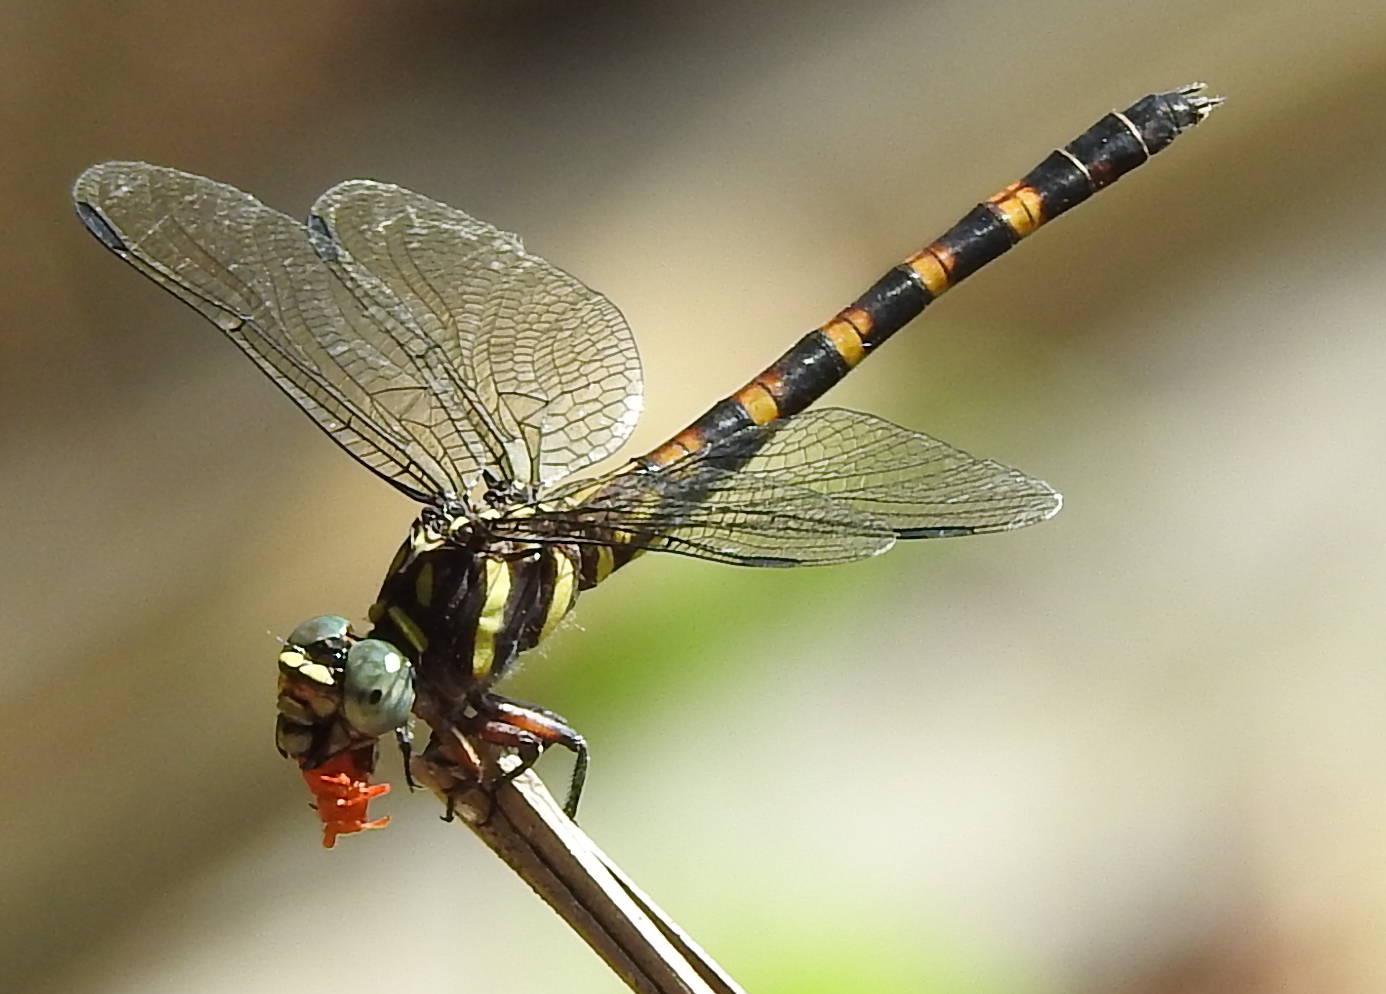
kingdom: Animalia
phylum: Arthropoda
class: Insecta
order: Odonata
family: Gomphidae
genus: Paragomphus
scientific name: Paragomphus capricornis
